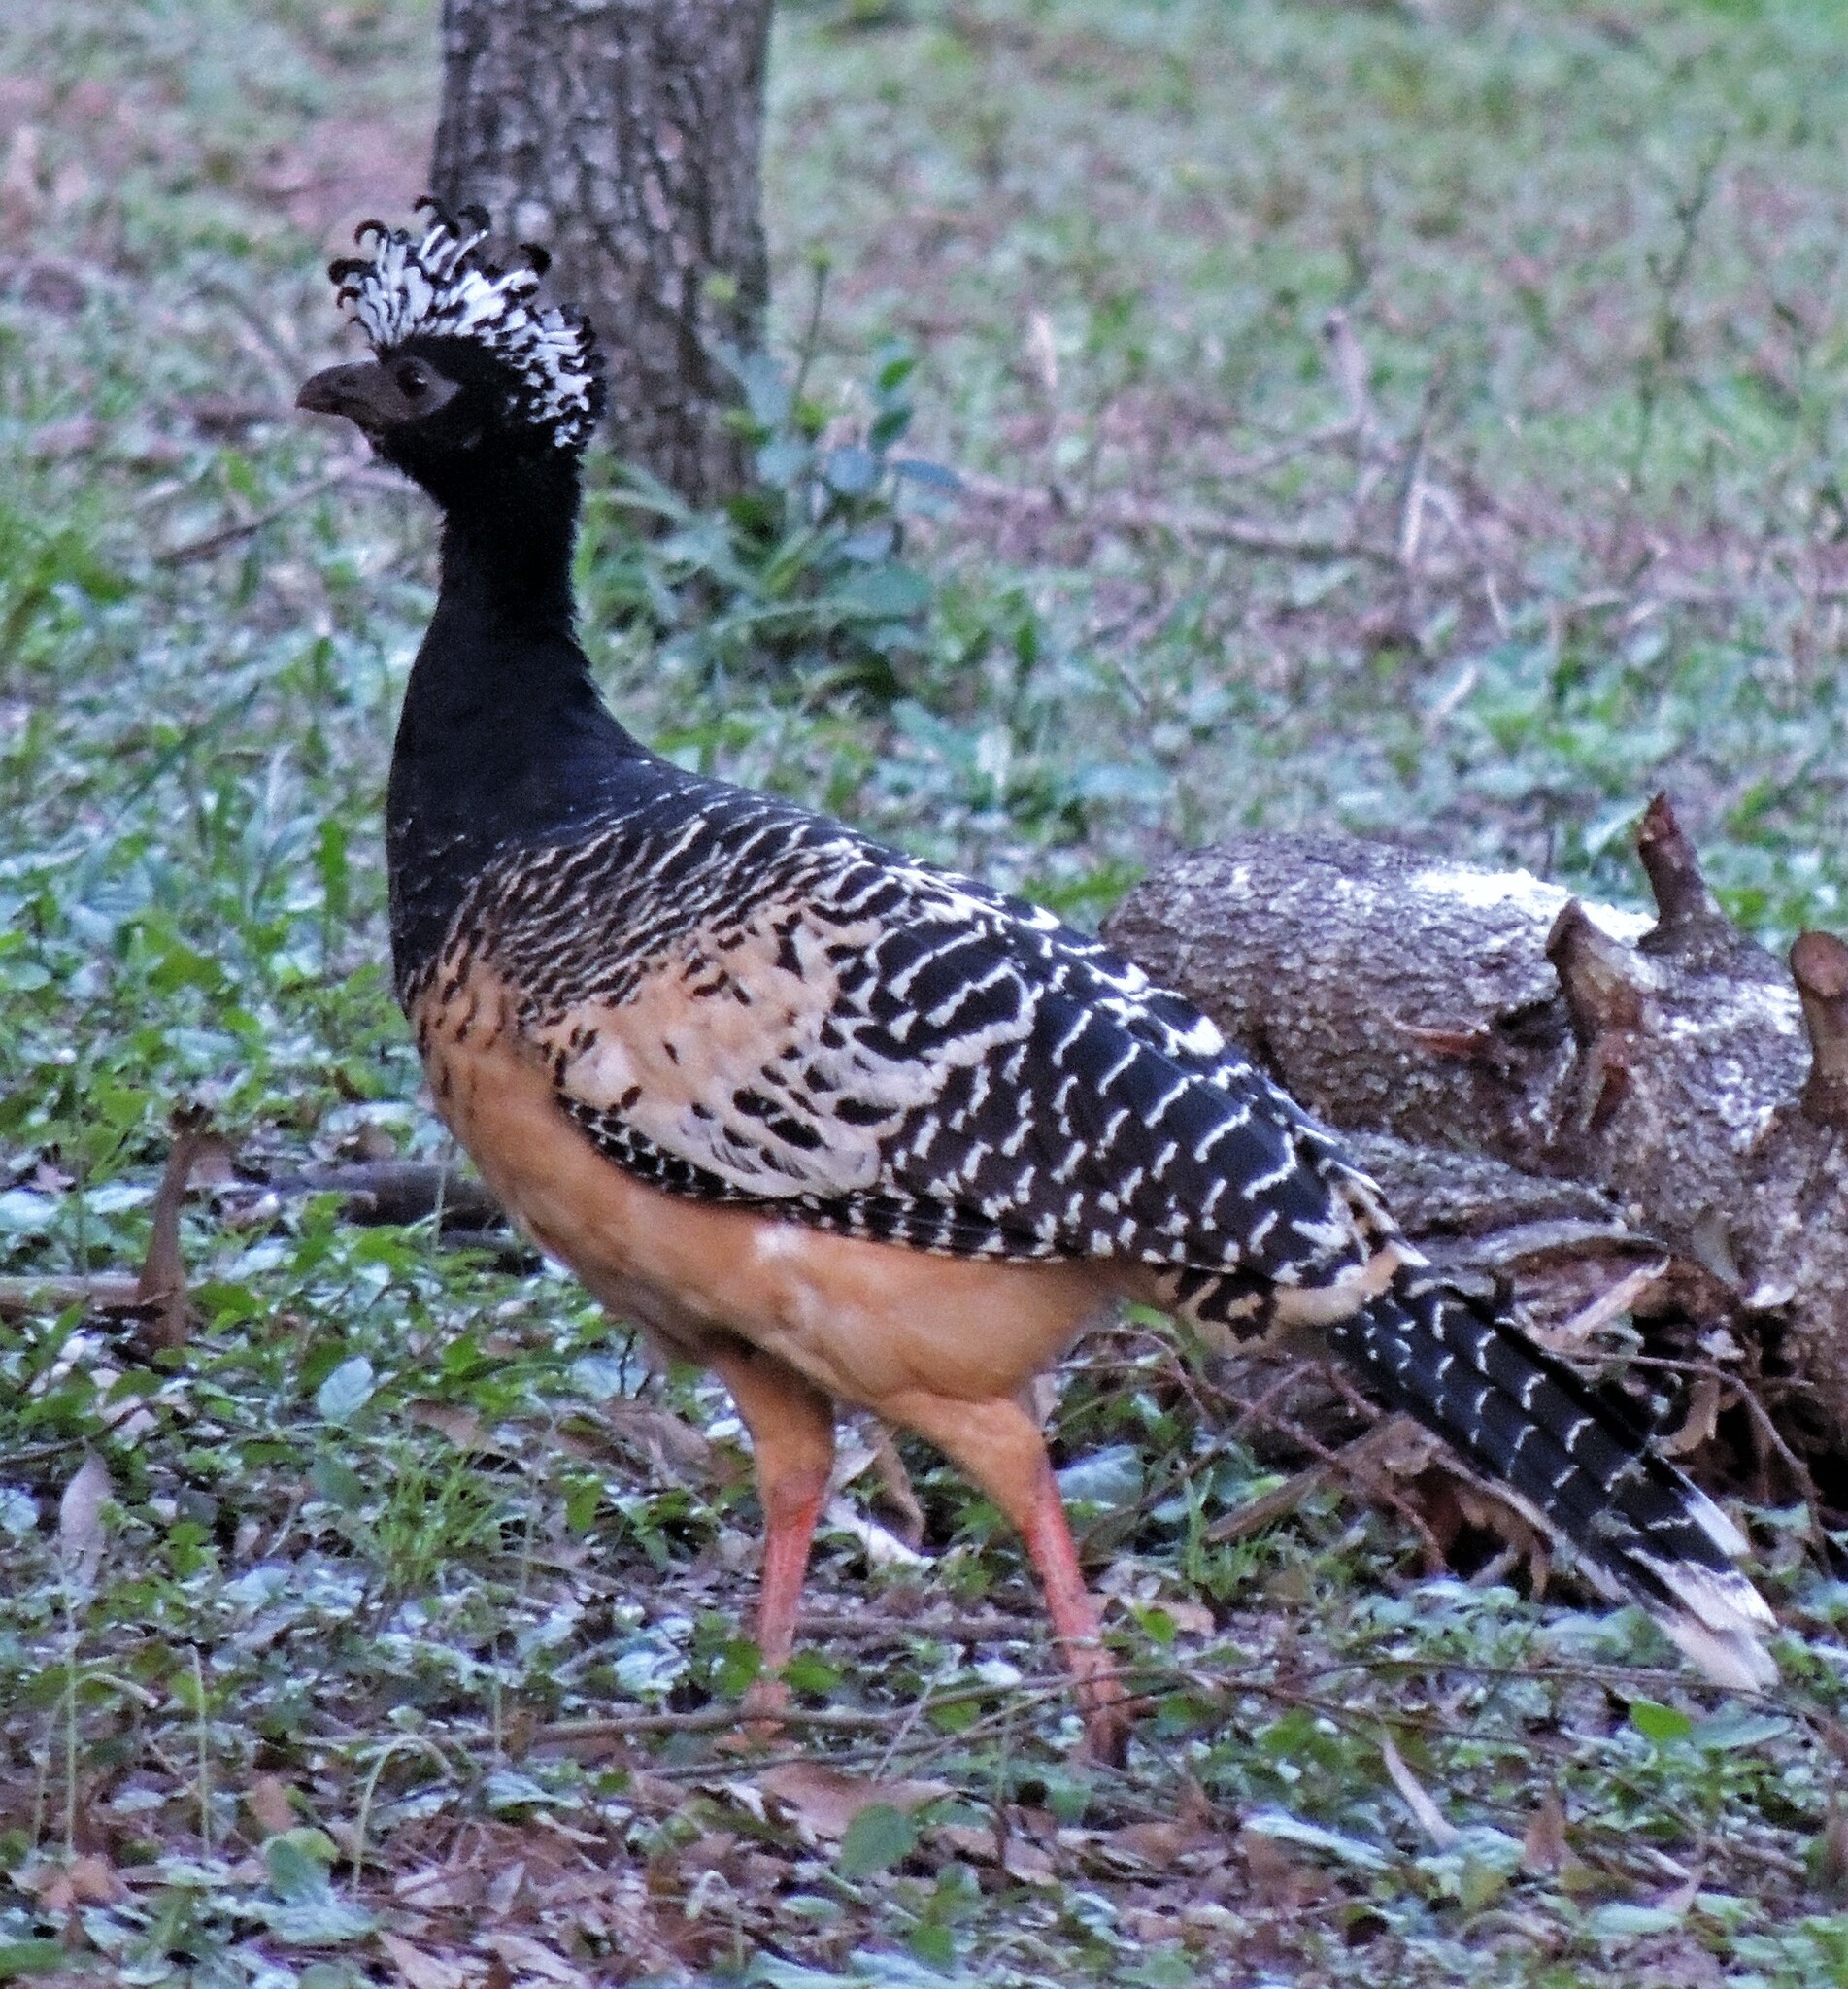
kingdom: Animalia
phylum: Chordata
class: Aves
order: Galliformes
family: Cracidae
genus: Crax
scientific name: Crax fasciolata
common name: Bare-faced curassow
